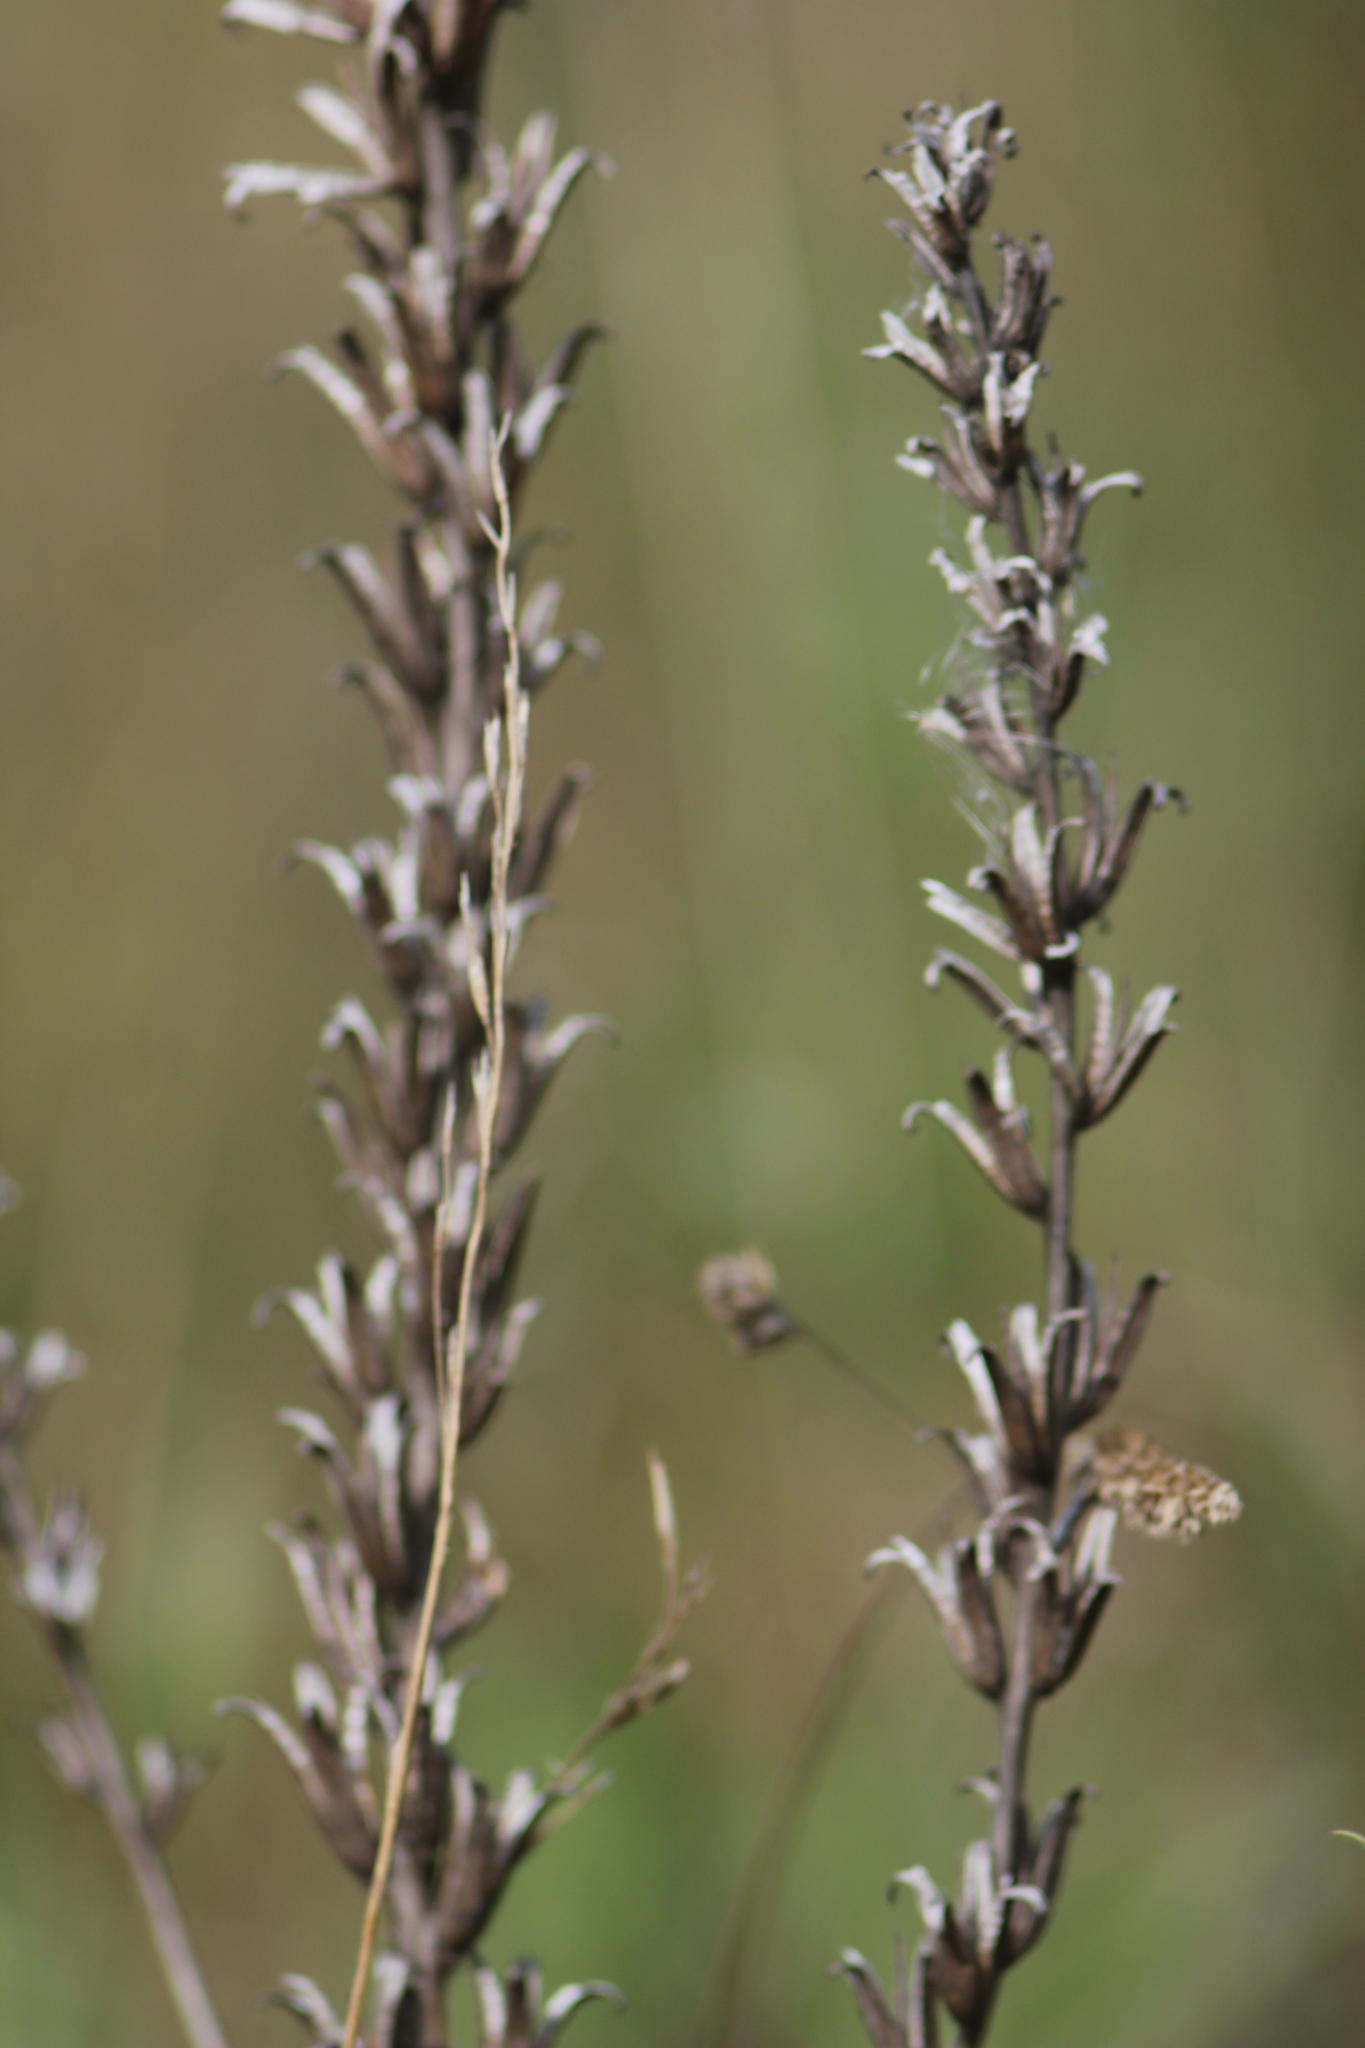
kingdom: Plantae
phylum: Tracheophyta
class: Magnoliopsida
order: Myrtales
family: Onagraceae
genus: Oenothera
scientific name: Oenothera
